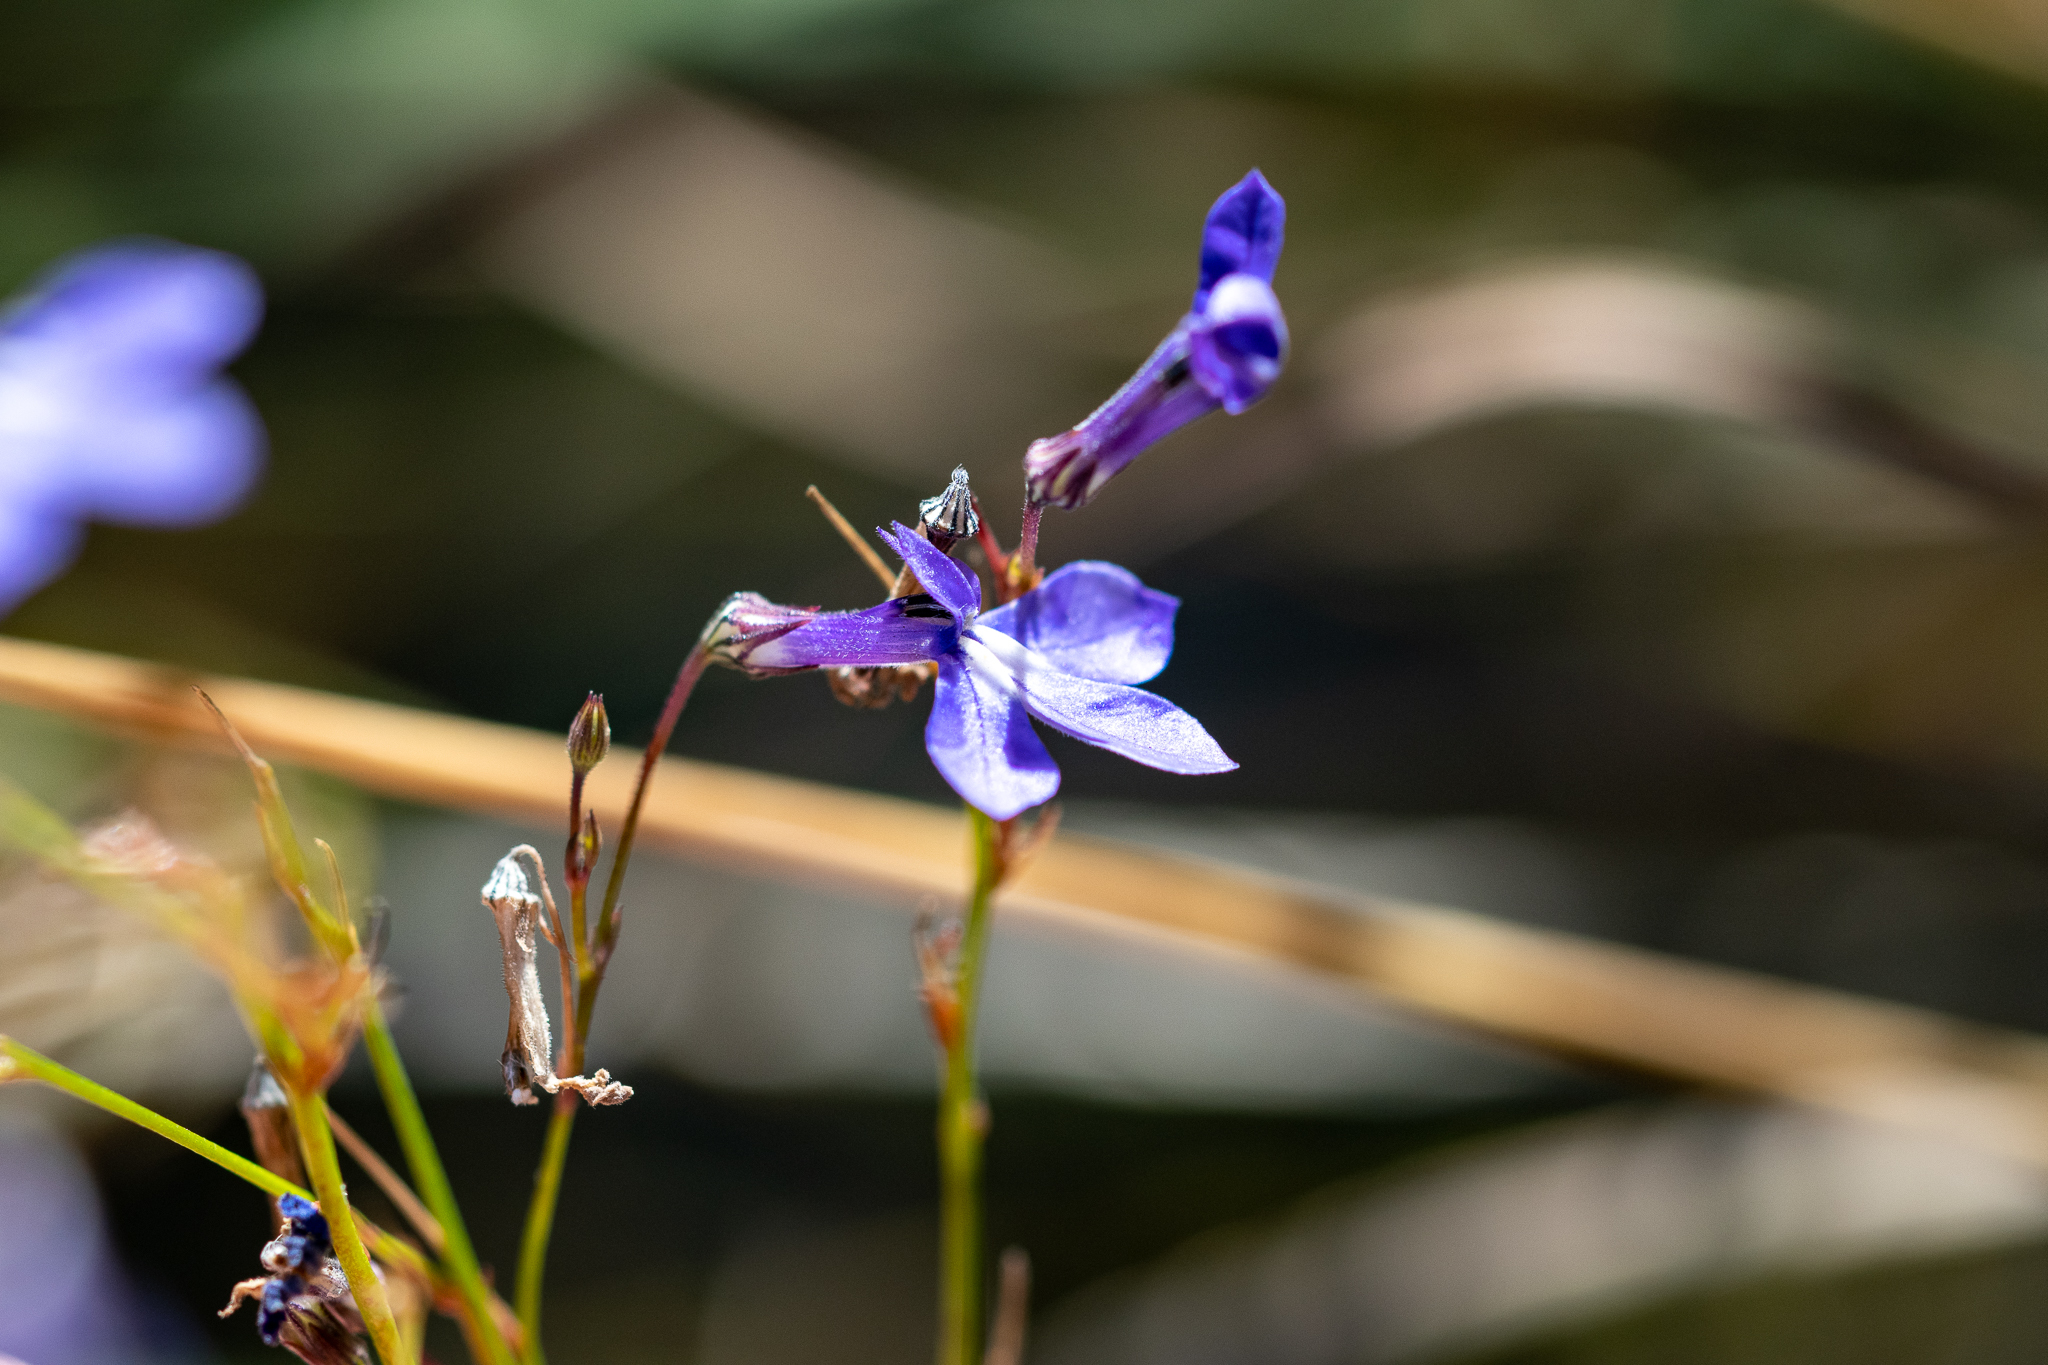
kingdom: Plantae
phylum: Tracheophyta
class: Magnoliopsida
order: Asterales
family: Campanulaceae
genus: Lobelia
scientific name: Lobelia setacea
